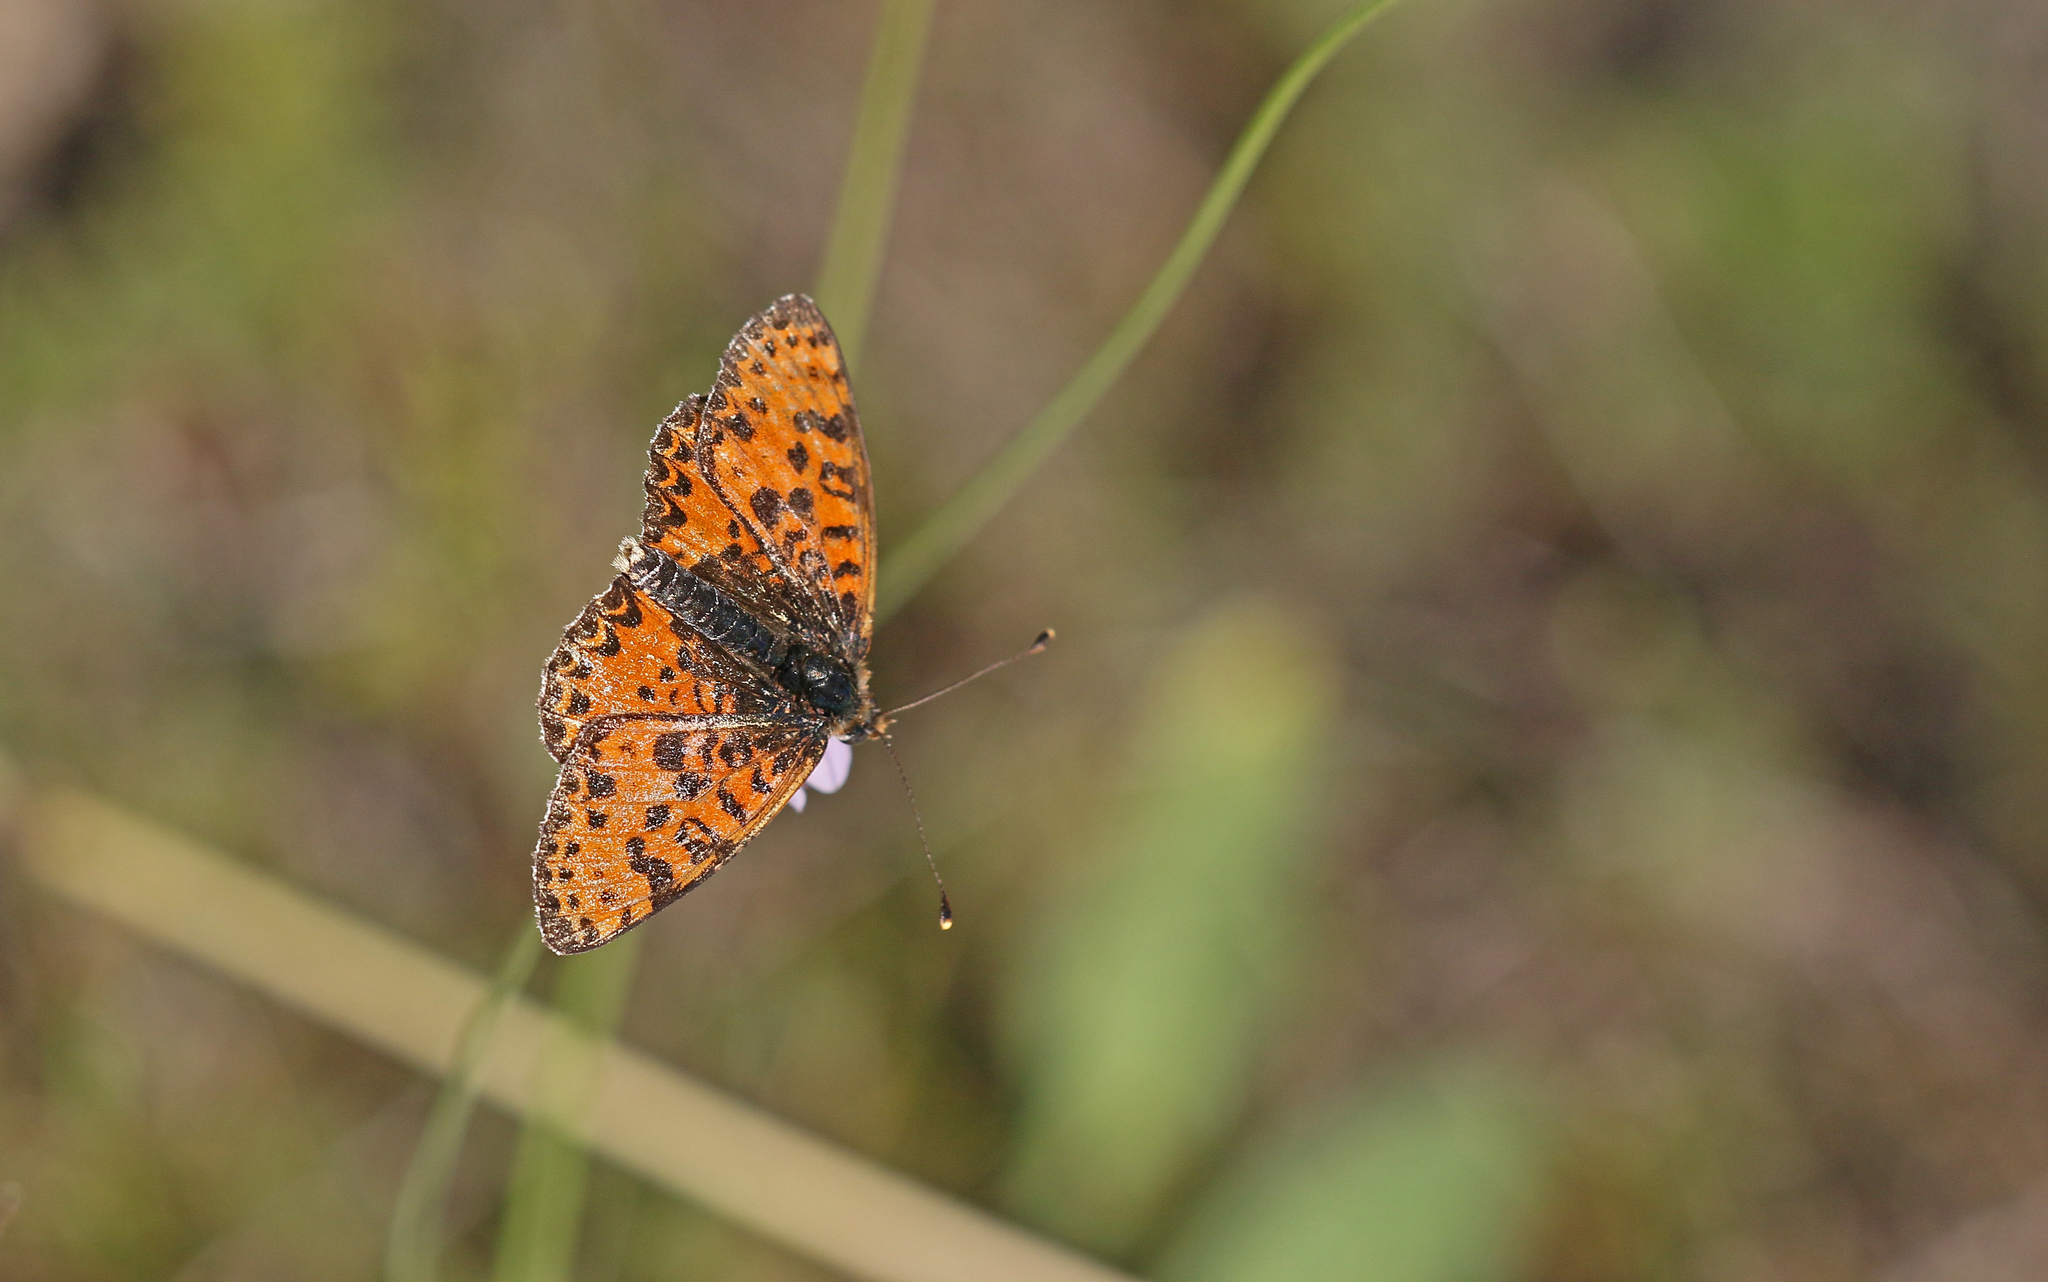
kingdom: Animalia
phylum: Arthropoda
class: Insecta
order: Lepidoptera
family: Nymphalidae
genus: Melitaea
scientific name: Melitaea didyma
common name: Spotted fritillary
